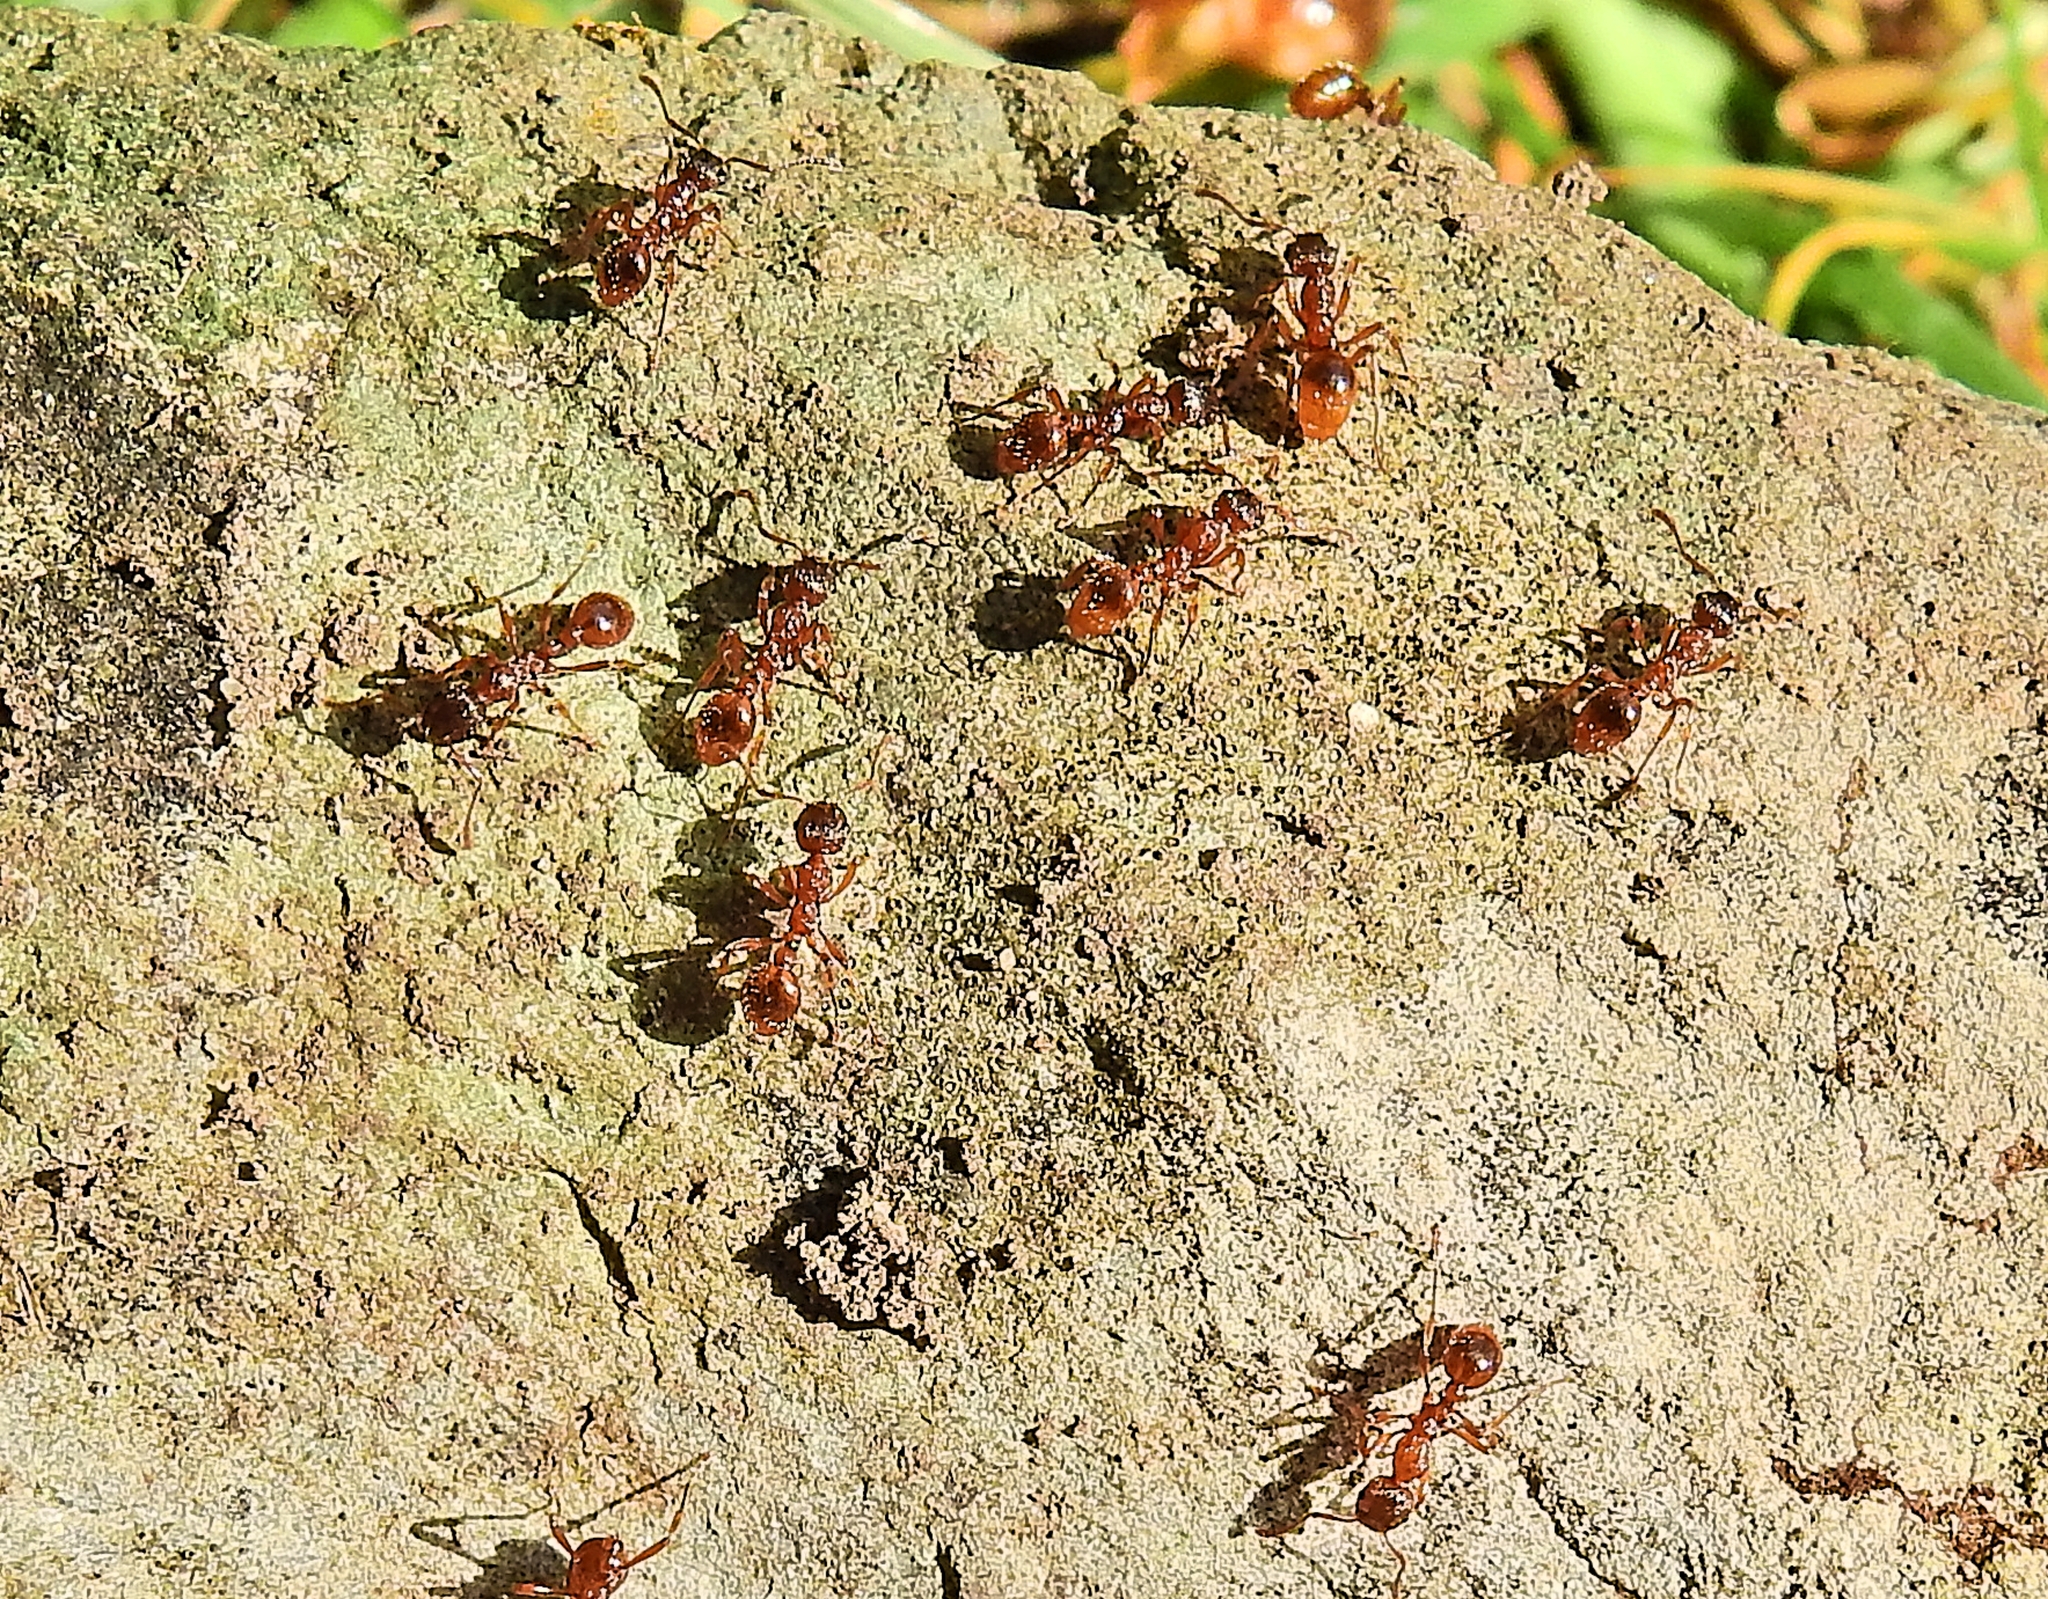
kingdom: Animalia
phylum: Arthropoda
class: Insecta
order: Hymenoptera
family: Formicidae
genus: Myrmica
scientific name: Myrmica rubra
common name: European fire ant
